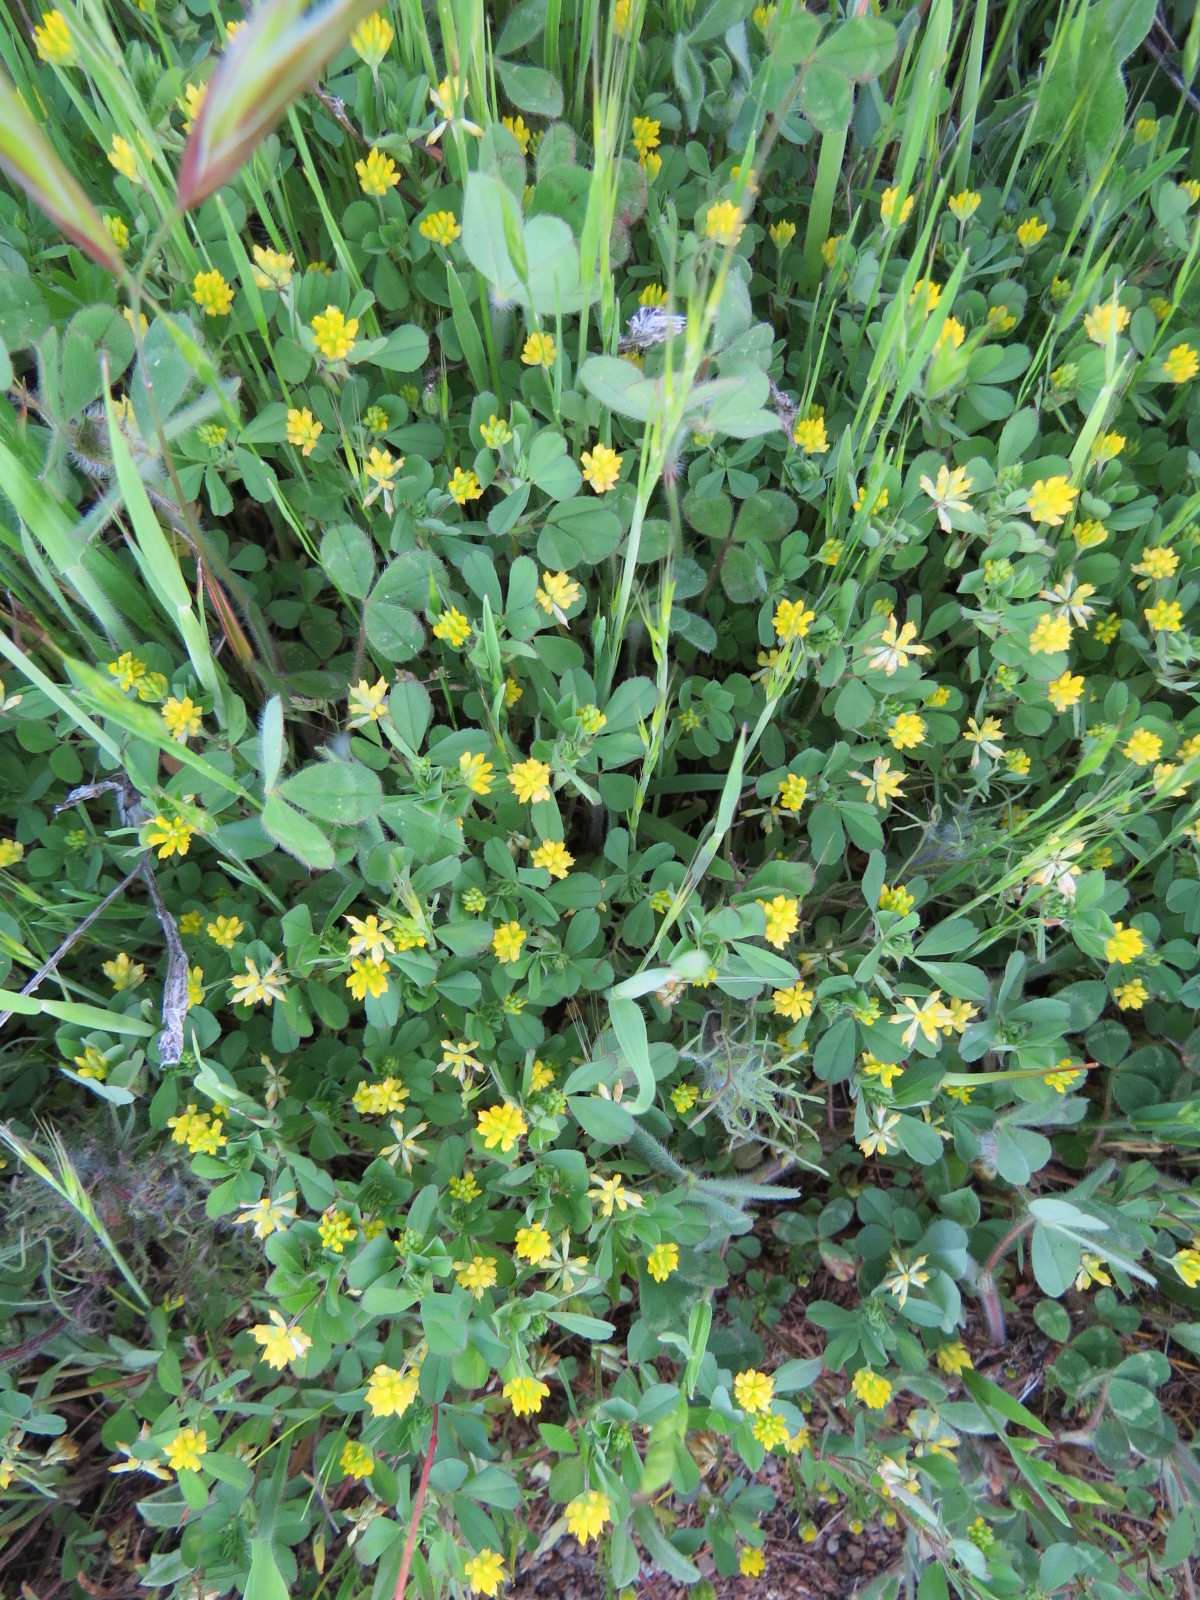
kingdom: Plantae
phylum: Tracheophyta
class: Magnoliopsida
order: Fabales
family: Fabaceae
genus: Trifolium
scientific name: Trifolium dubium
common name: Suckling clover
